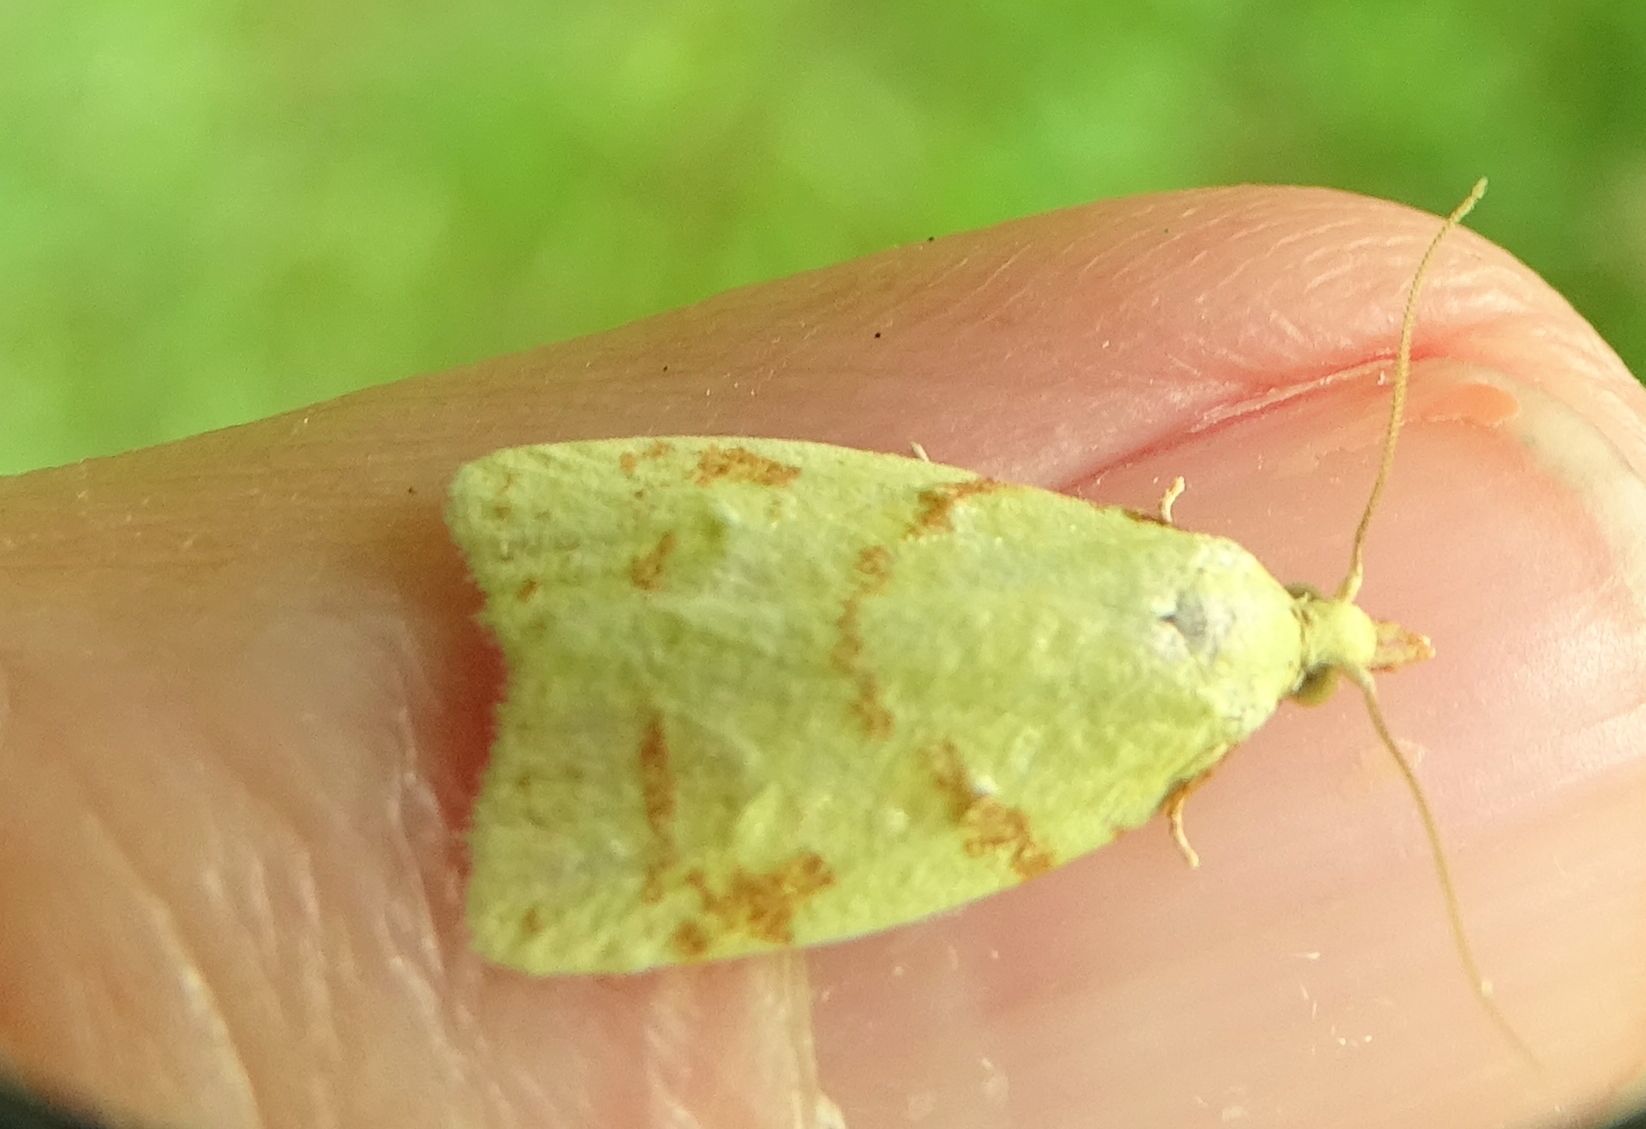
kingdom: Animalia
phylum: Arthropoda
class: Insecta
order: Lepidoptera
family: Tortricidae
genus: Cenopis
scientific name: Cenopis pettitana
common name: Maple-basswood leafroller moth
